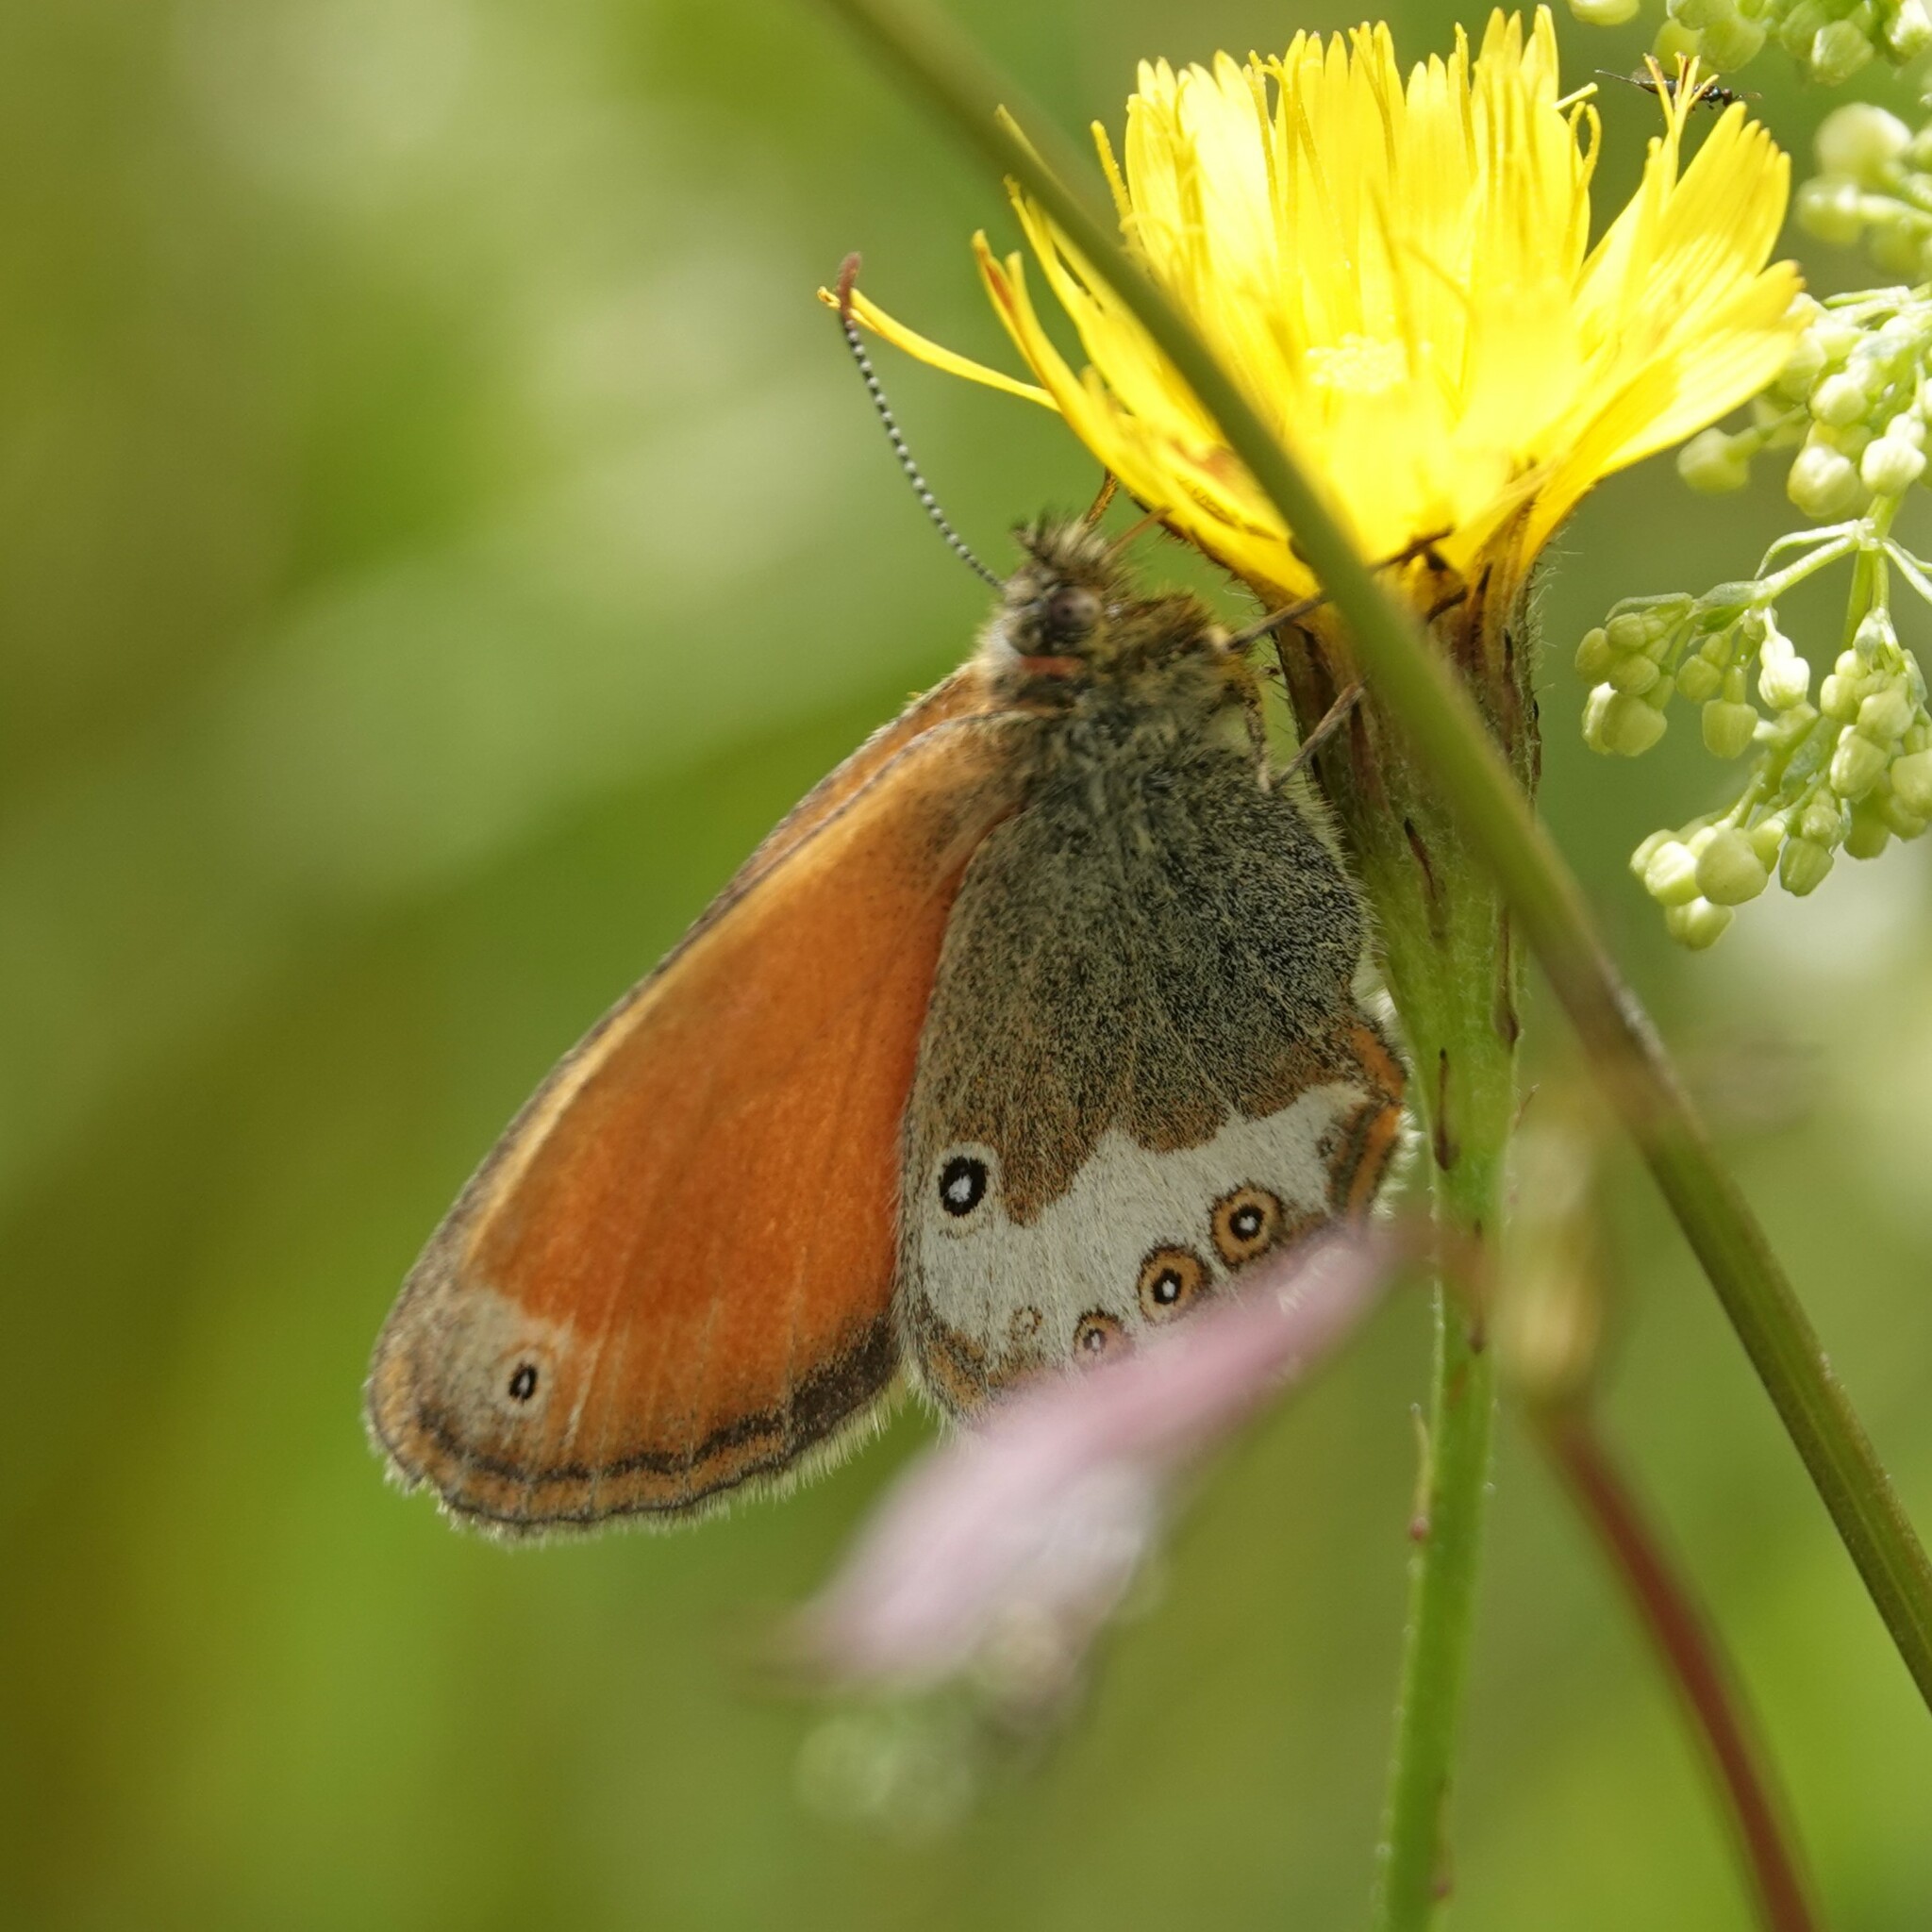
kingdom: Animalia
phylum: Arthropoda
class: Insecta
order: Lepidoptera
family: Nymphalidae
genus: Coenonympha
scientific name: Coenonympha arcania
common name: Pearly heath
